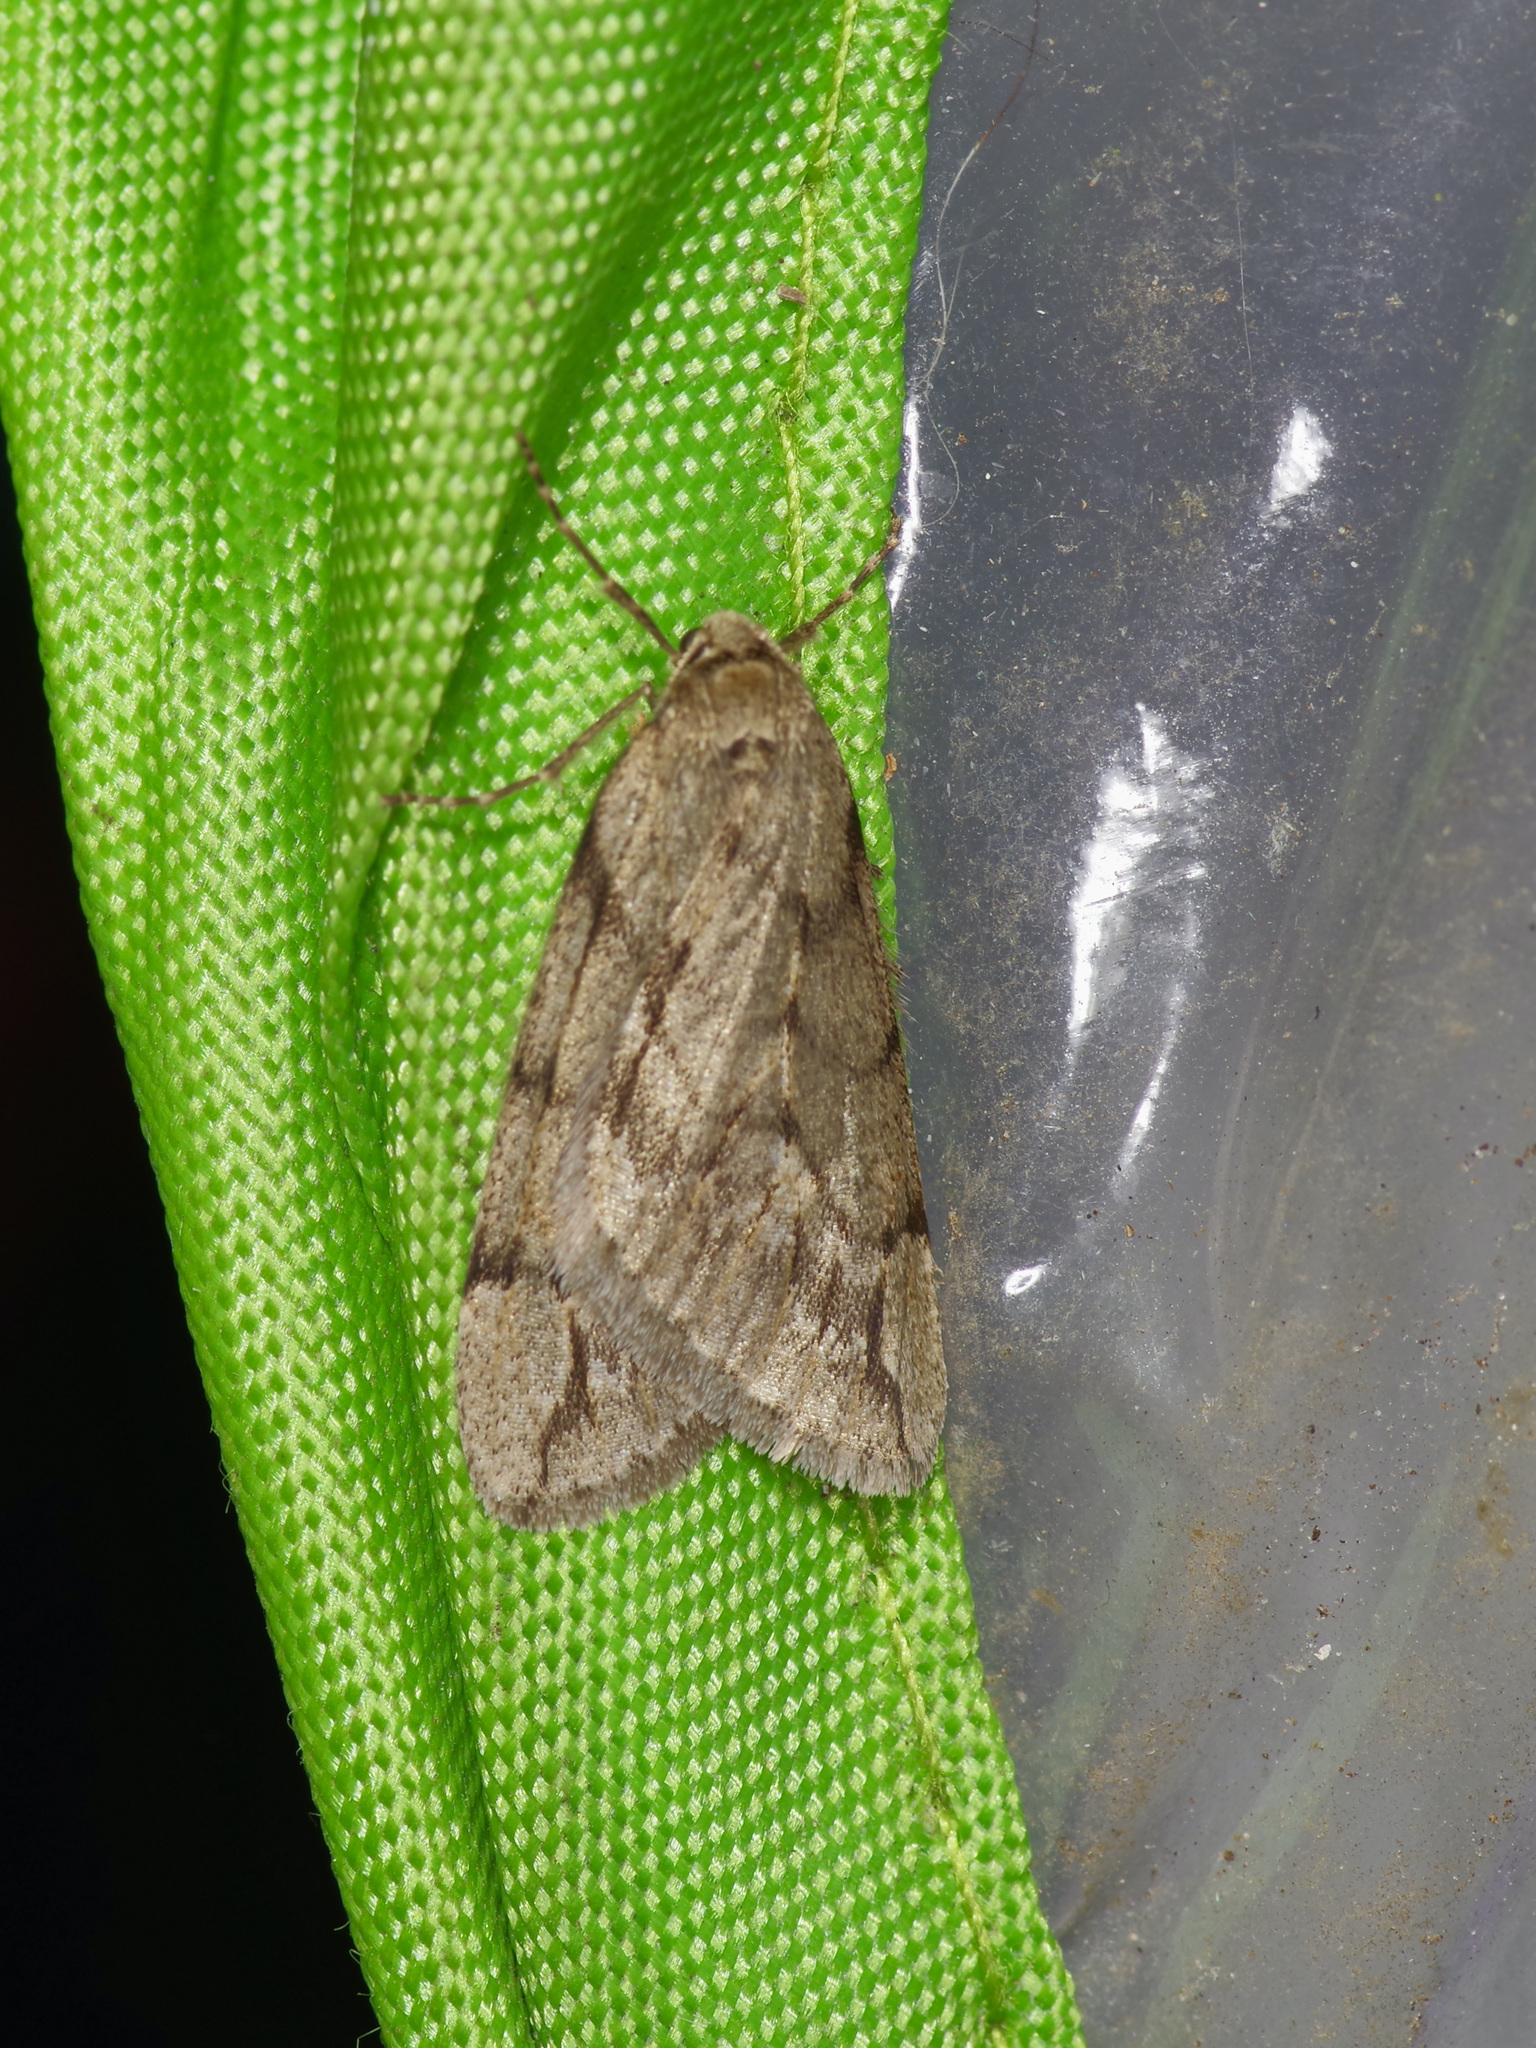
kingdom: Animalia
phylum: Arthropoda
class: Insecta
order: Lepidoptera
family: Geometridae
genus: Paleacrita
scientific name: Paleacrita vernata
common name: Spring cankerworm
